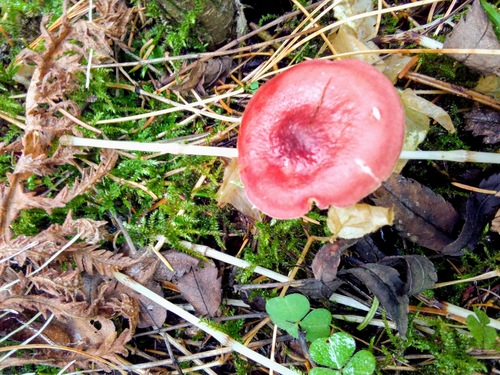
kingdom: Fungi
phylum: Basidiomycota
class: Agaricomycetes
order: Russulales
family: Russulaceae
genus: Russula
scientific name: Russula sanguinea
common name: Bloody brittlegill
